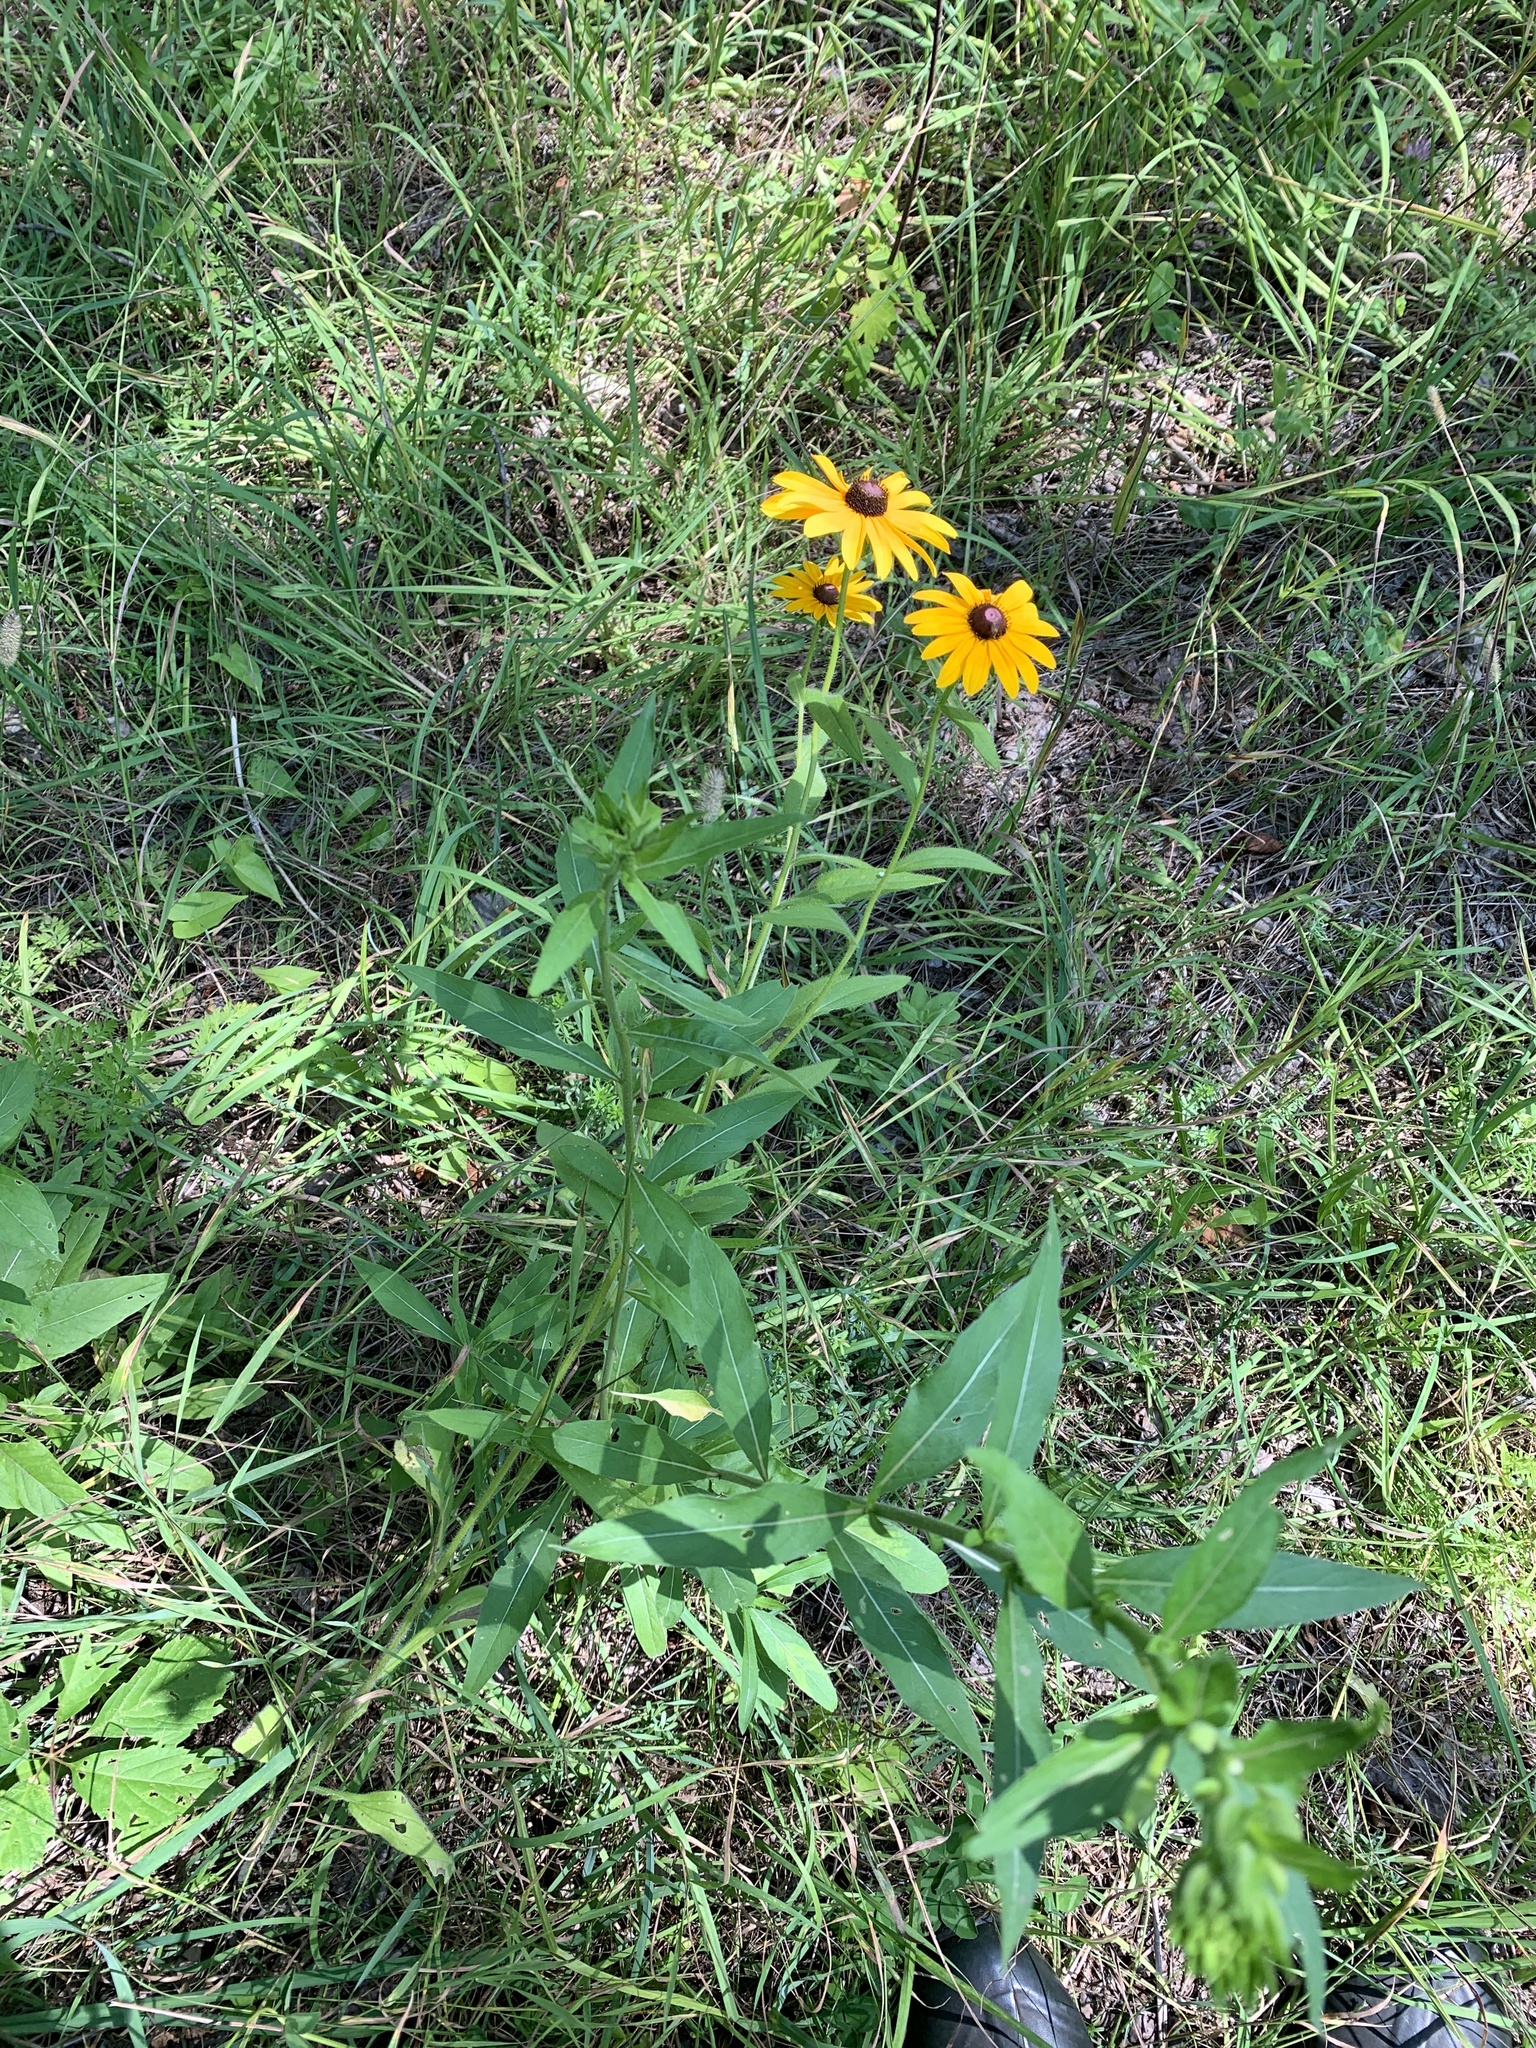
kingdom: Plantae
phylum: Tracheophyta
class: Magnoliopsida
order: Asterales
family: Asteraceae
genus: Rudbeckia
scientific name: Rudbeckia hirta
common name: Black-eyed-susan
